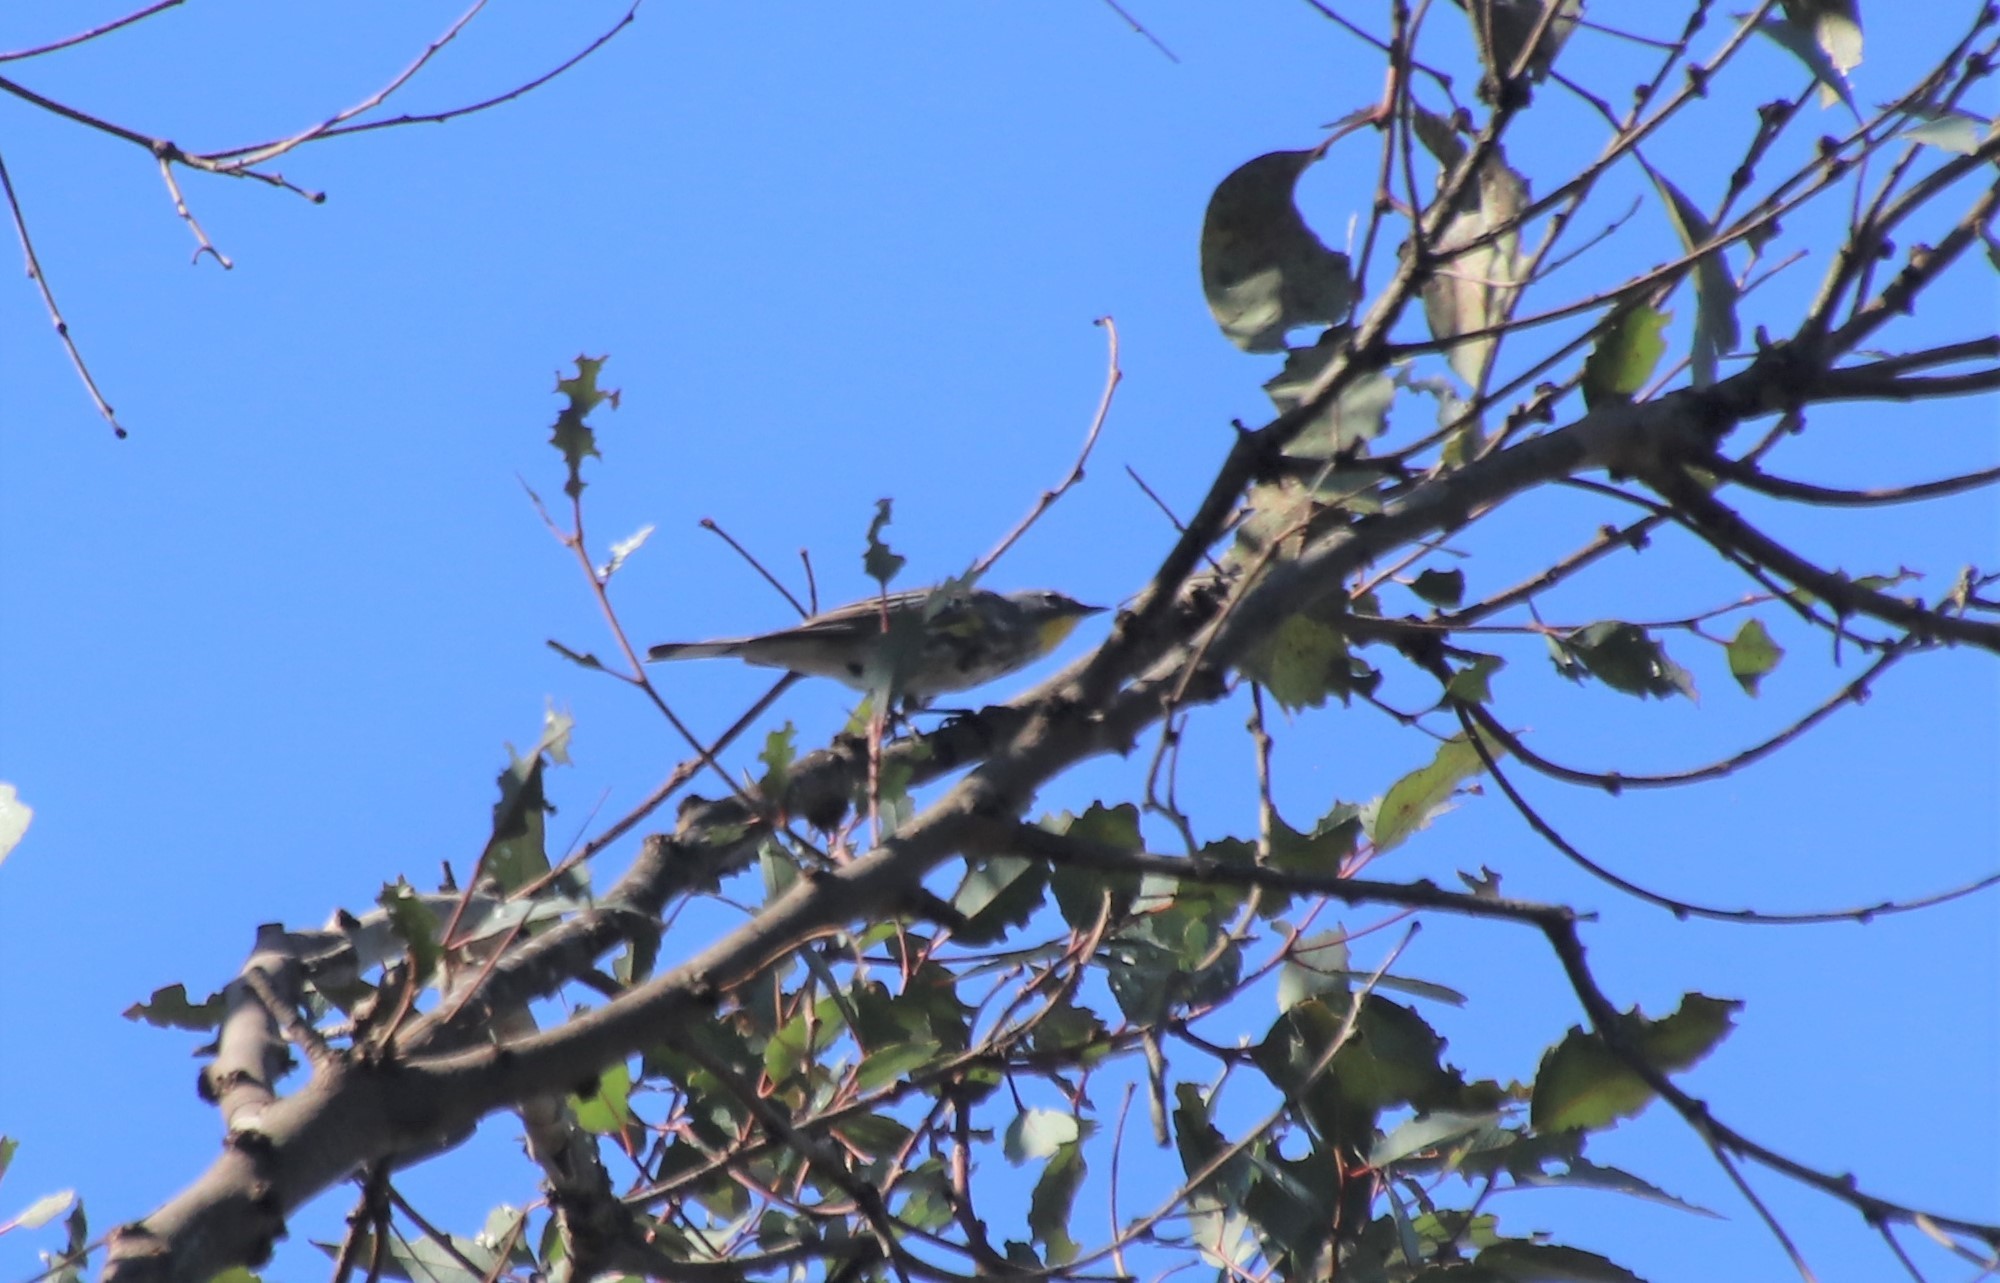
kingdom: Animalia
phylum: Chordata
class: Aves
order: Passeriformes
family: Parulidae
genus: Setophaga
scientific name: Setophaga auduboni
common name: Audubon's warbler
